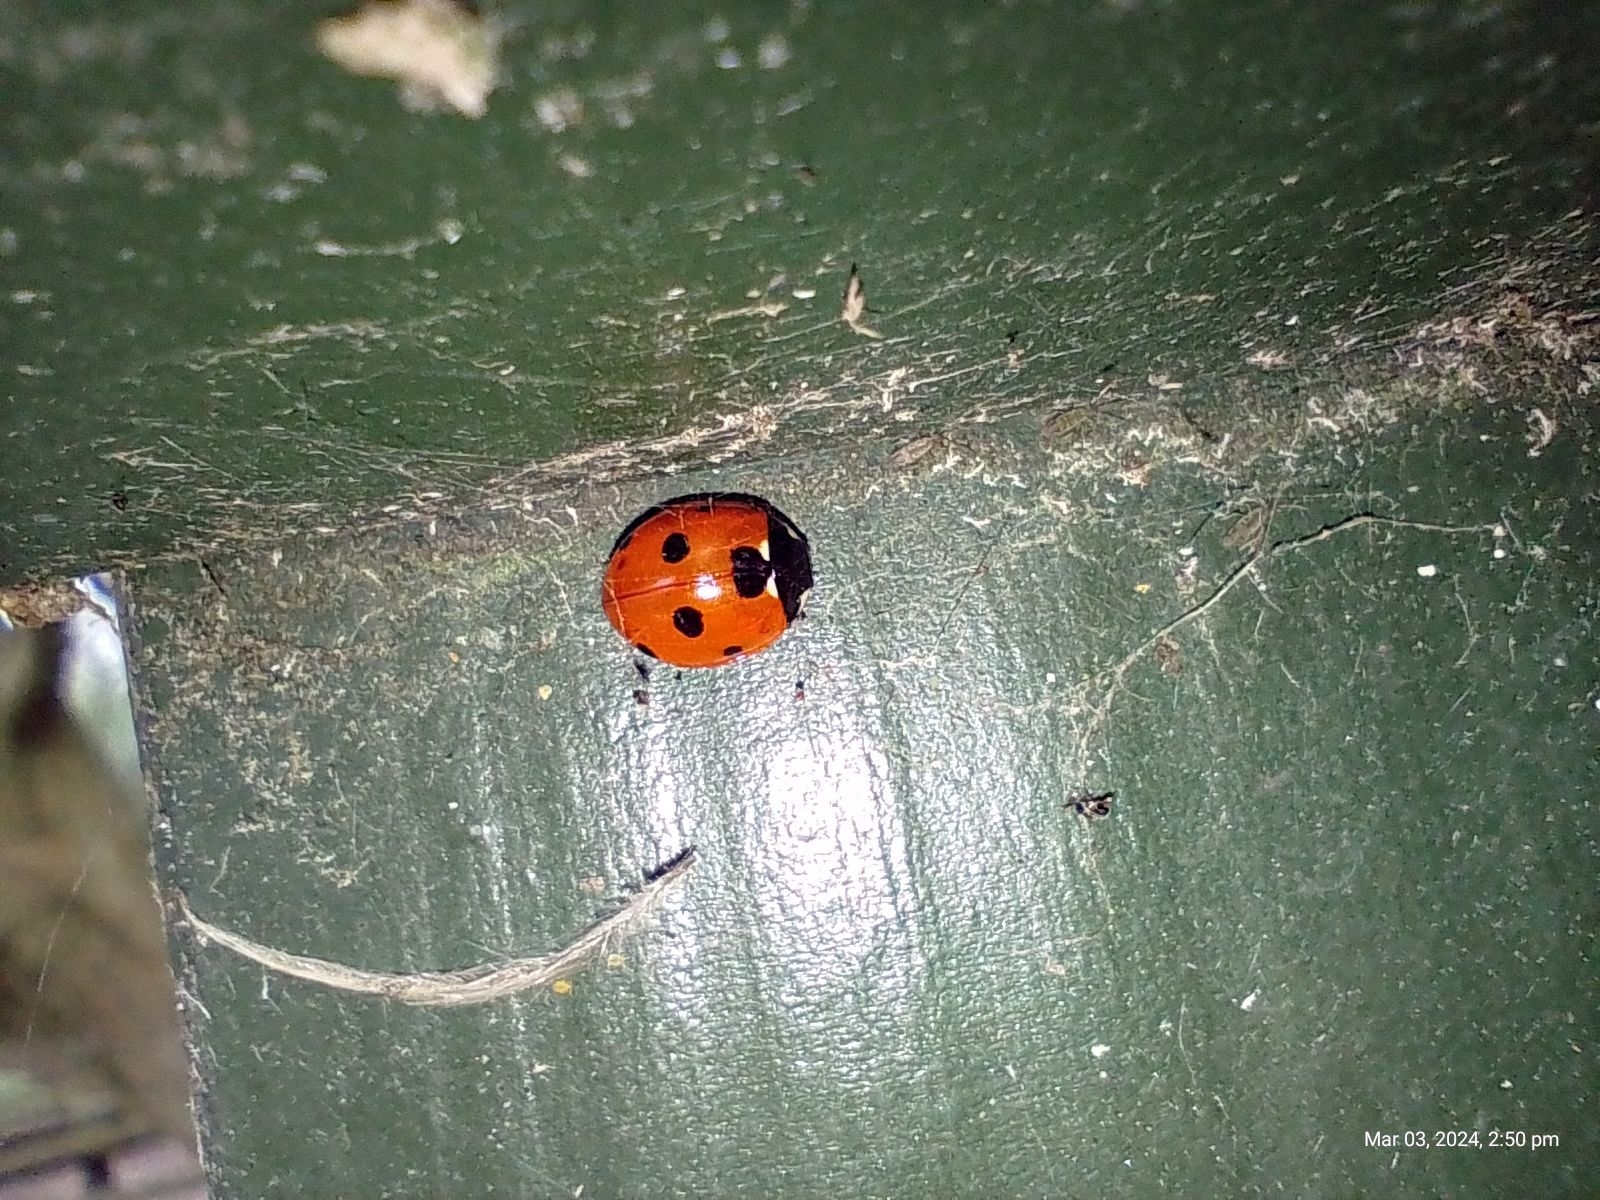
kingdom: Animalia
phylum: Arthropoda
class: Insecta
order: Coleoptera
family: Coccinellidae
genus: Coccinella
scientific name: Coccinella septempunctata
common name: Sevenspotted lady beetle
